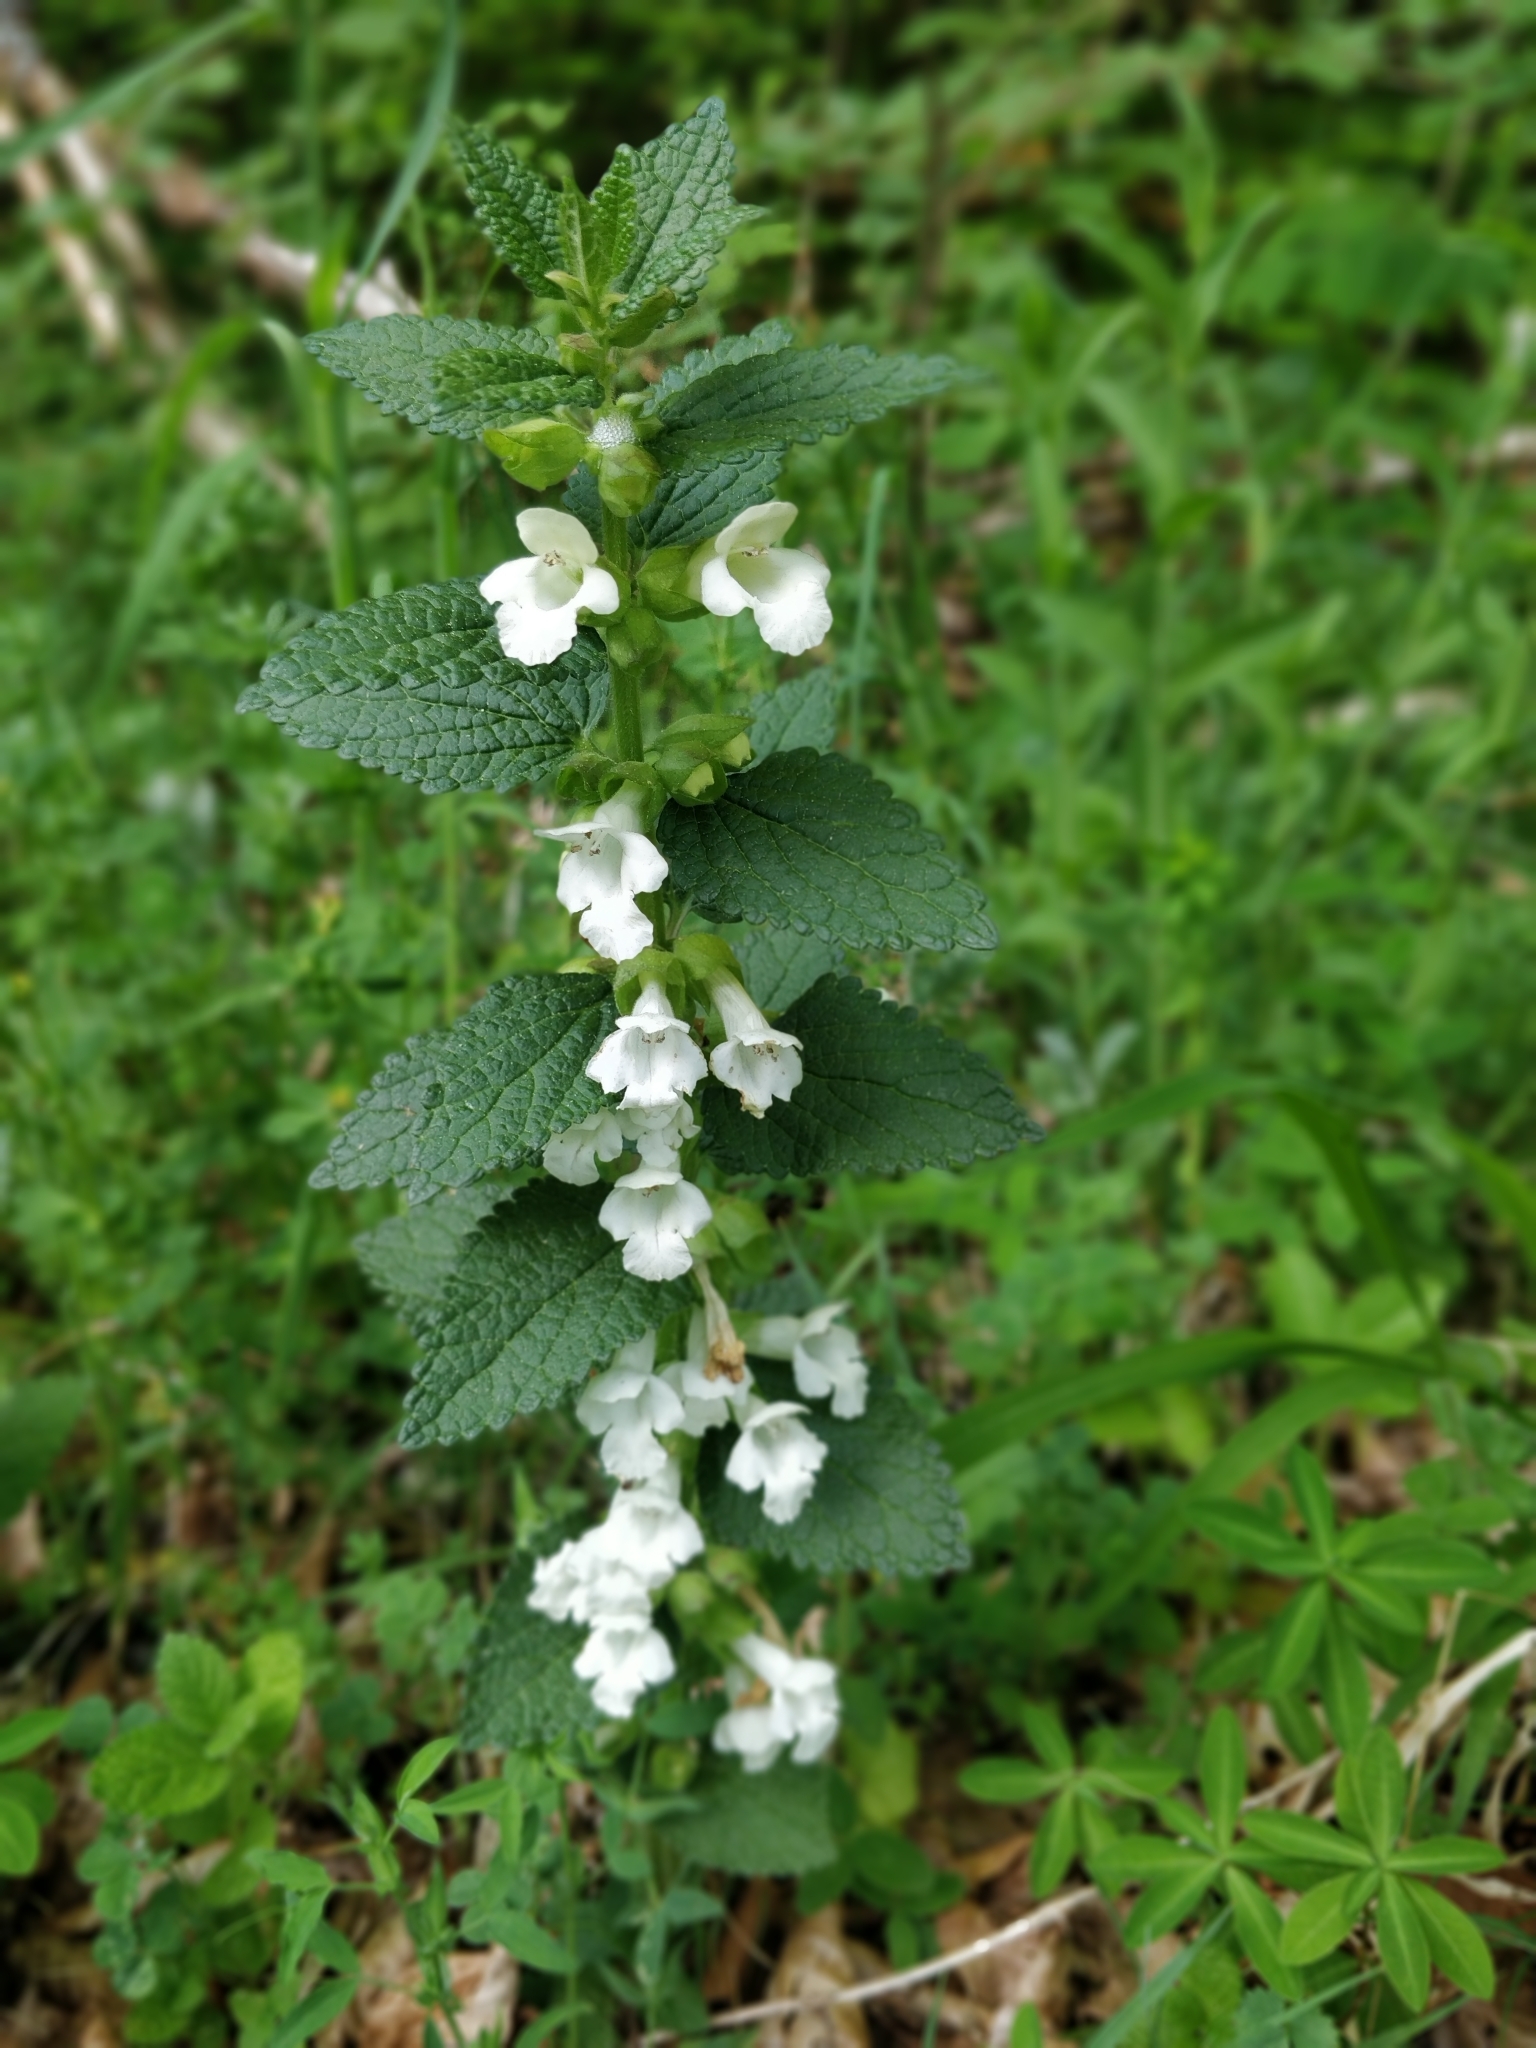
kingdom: Plantae
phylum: Tracheophyta
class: Magnoliopsida
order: Lamiales
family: Lamiaceae
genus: Melittis
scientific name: Melittis melissophyllum
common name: Bastard balm
